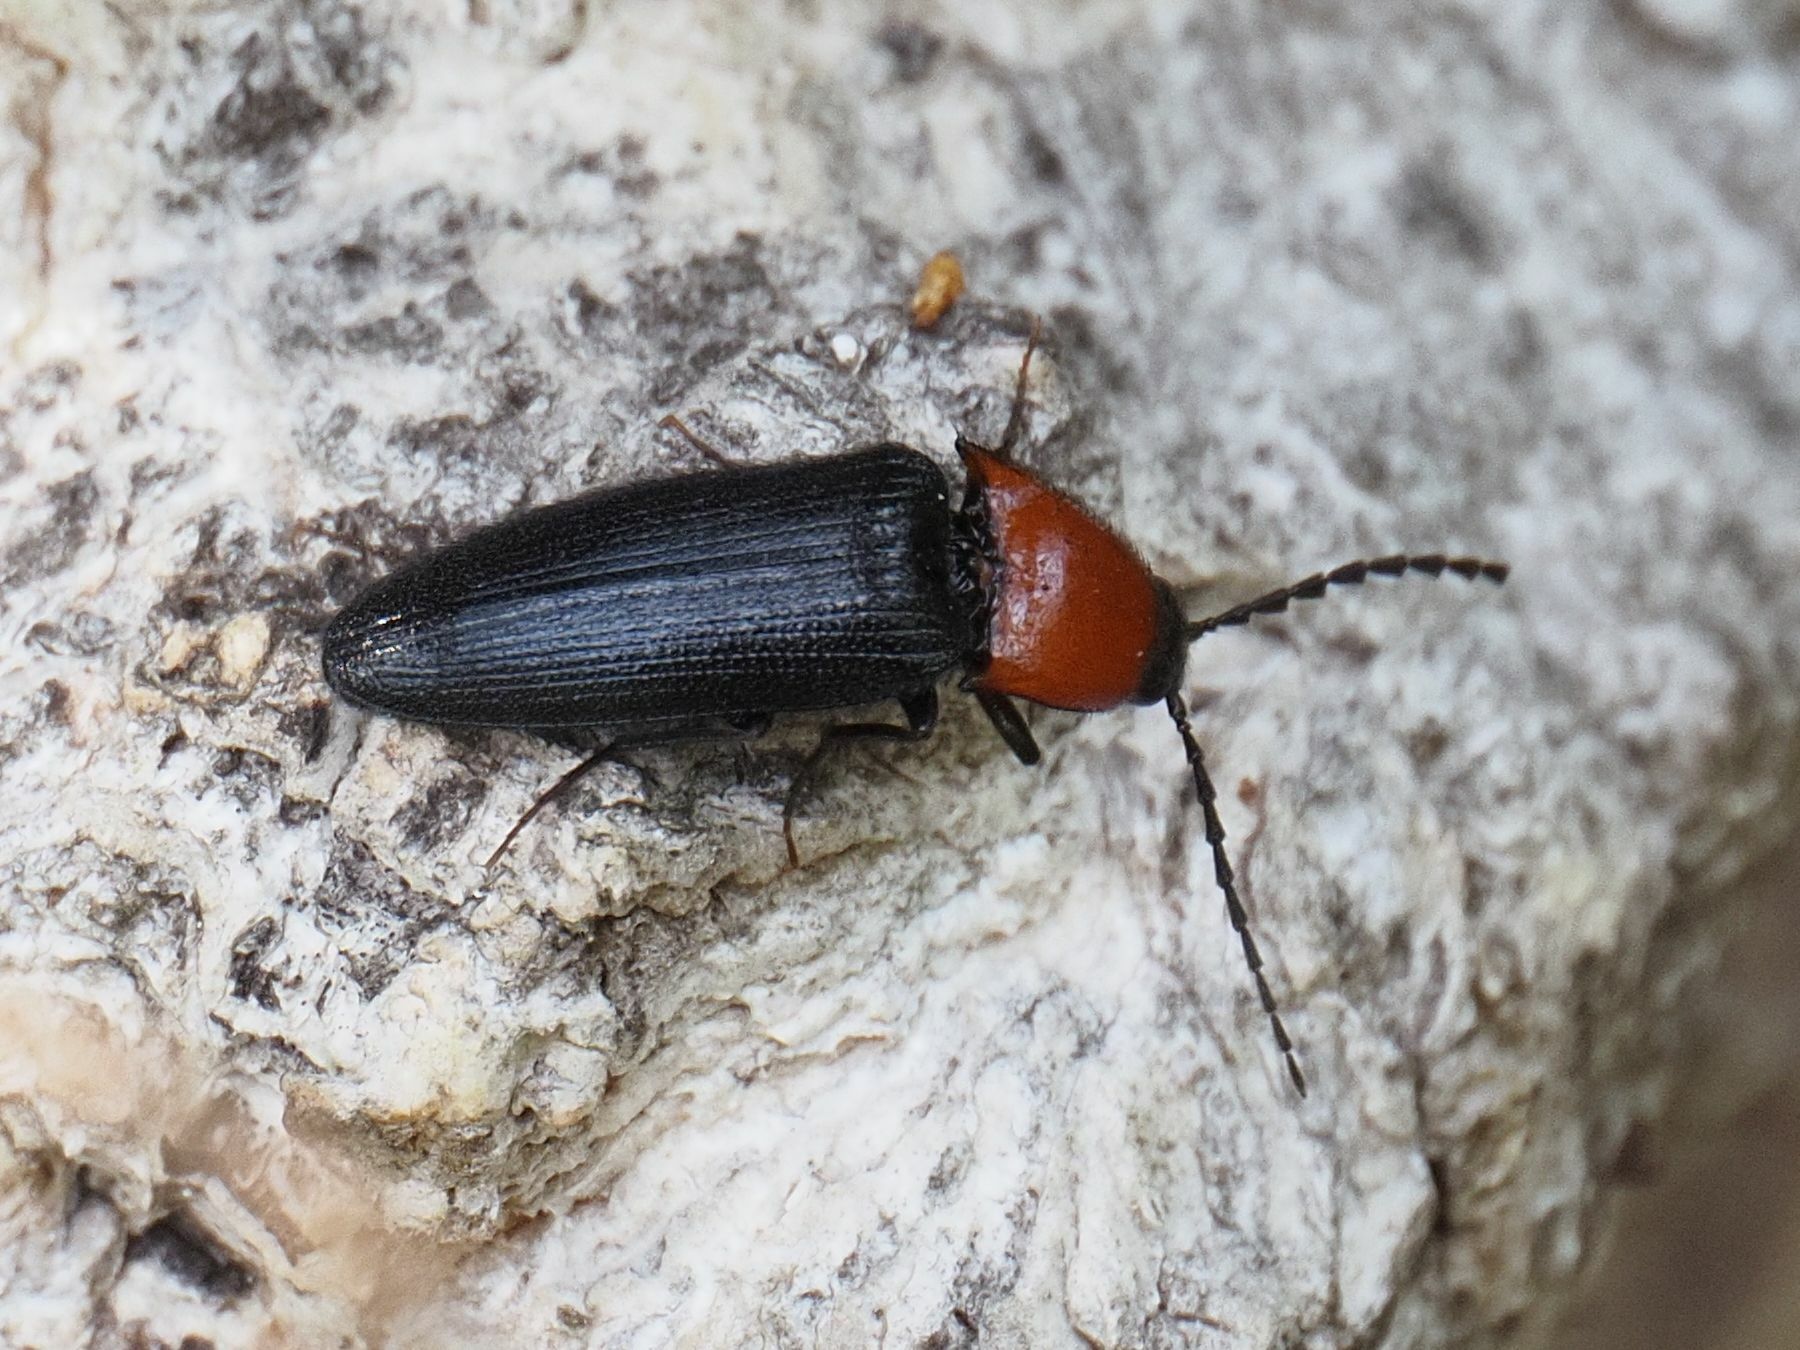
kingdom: Animalia
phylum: Arthropoda
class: Insecta
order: Coleoptera
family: Elateridae
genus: Ischnodes
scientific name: Ischnodes sanguinicollis
